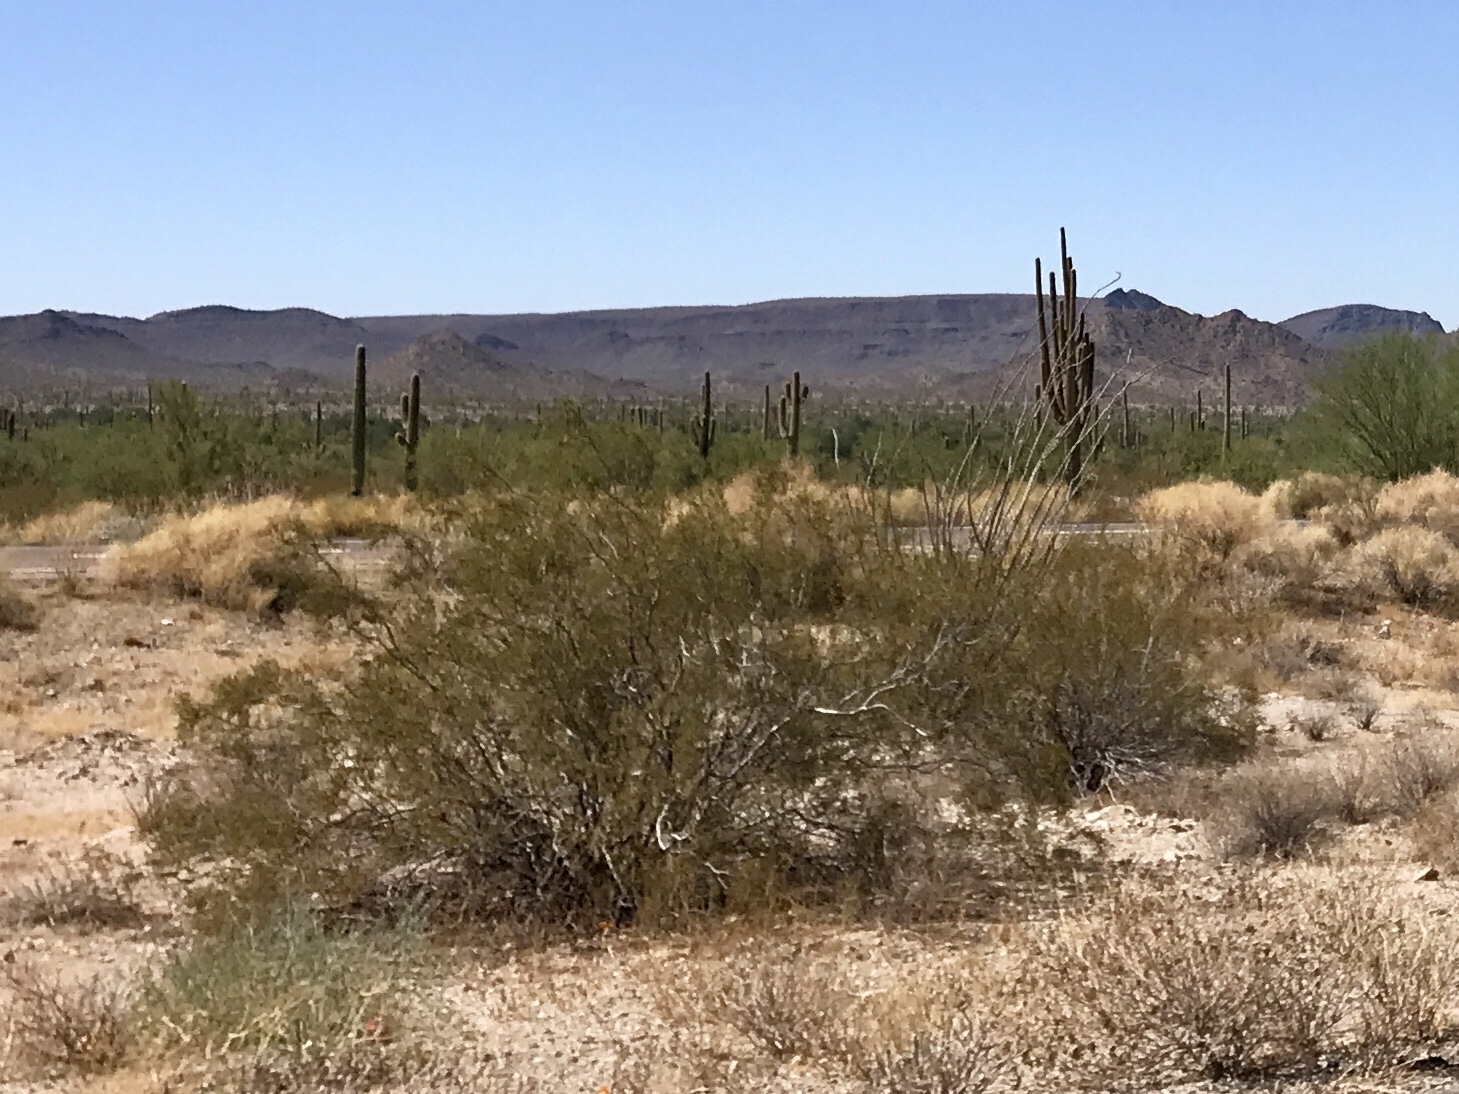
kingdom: Plantae
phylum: Tracheophyta
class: Magnoliopsida
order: Zygophyllales
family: Zygophyllaceae
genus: Larrea
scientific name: Larrea tridentata
